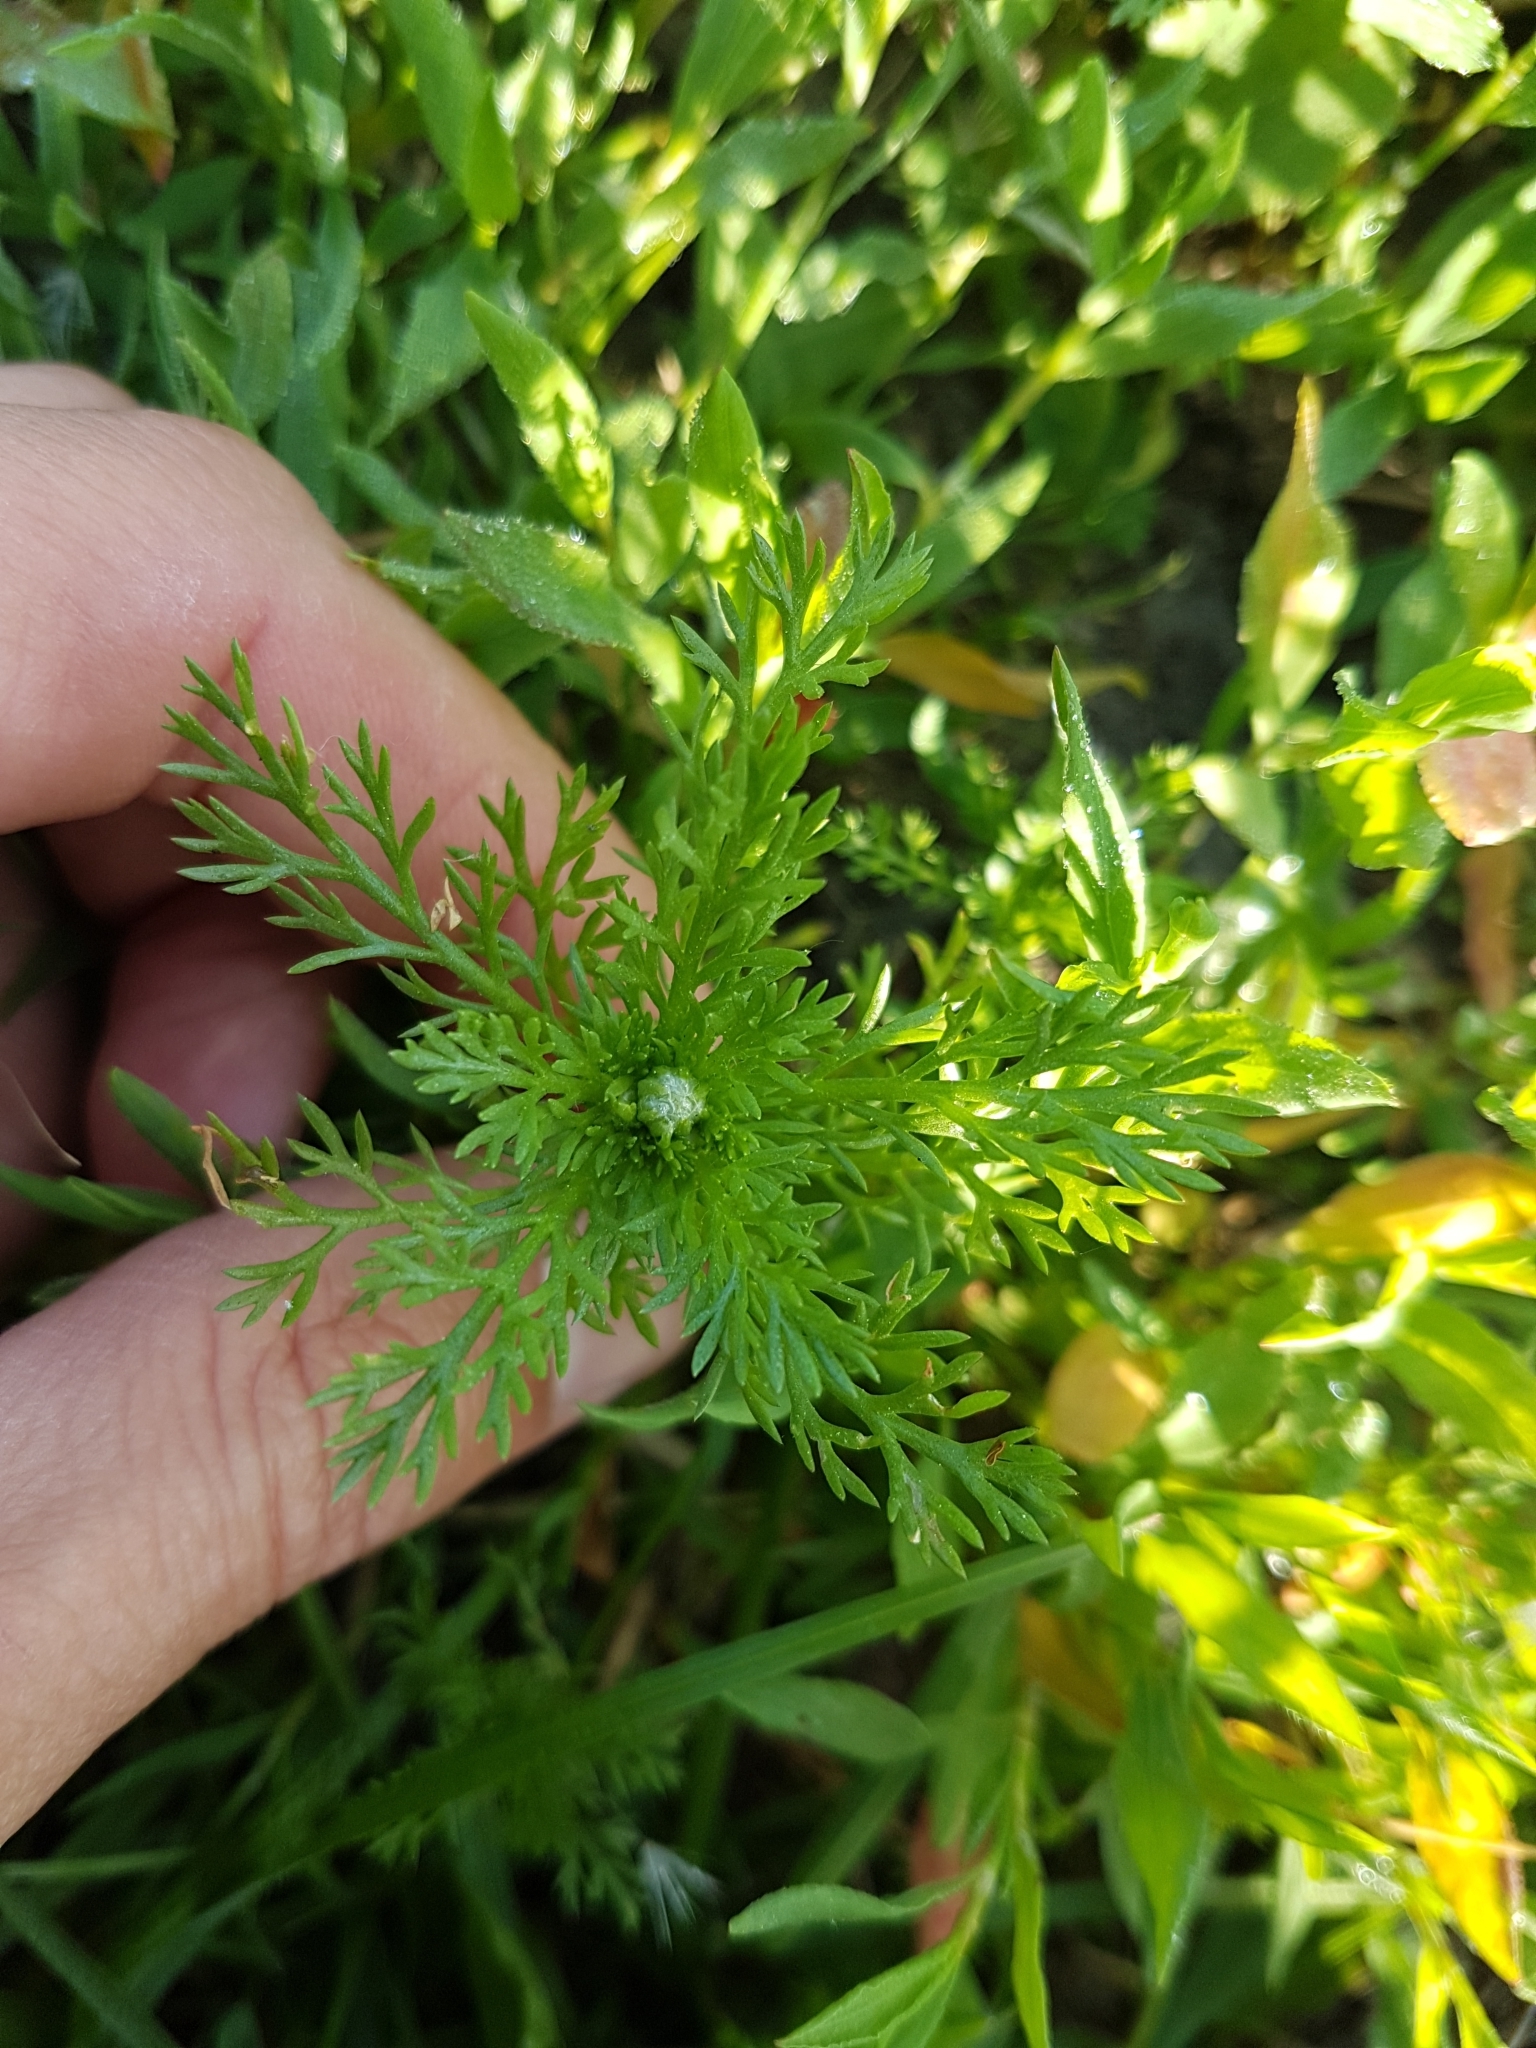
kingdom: Plantae
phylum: Tracheophyta
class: Magnoliopsida
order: Asterales
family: Asteraceae
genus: Matricaria
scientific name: Matricaria discoidea
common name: Disc mayweed
